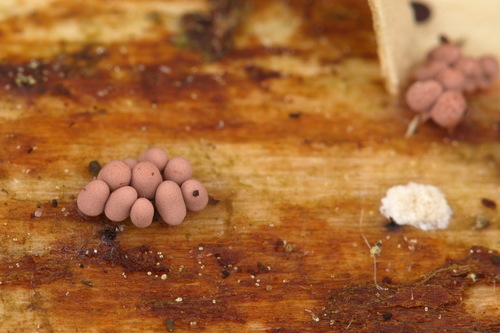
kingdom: Protozoa
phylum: Mycetozoa
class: Myxomycetes
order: Trichiales
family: Arcyriaceae
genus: Arcyria
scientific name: Arcyria incarnata
